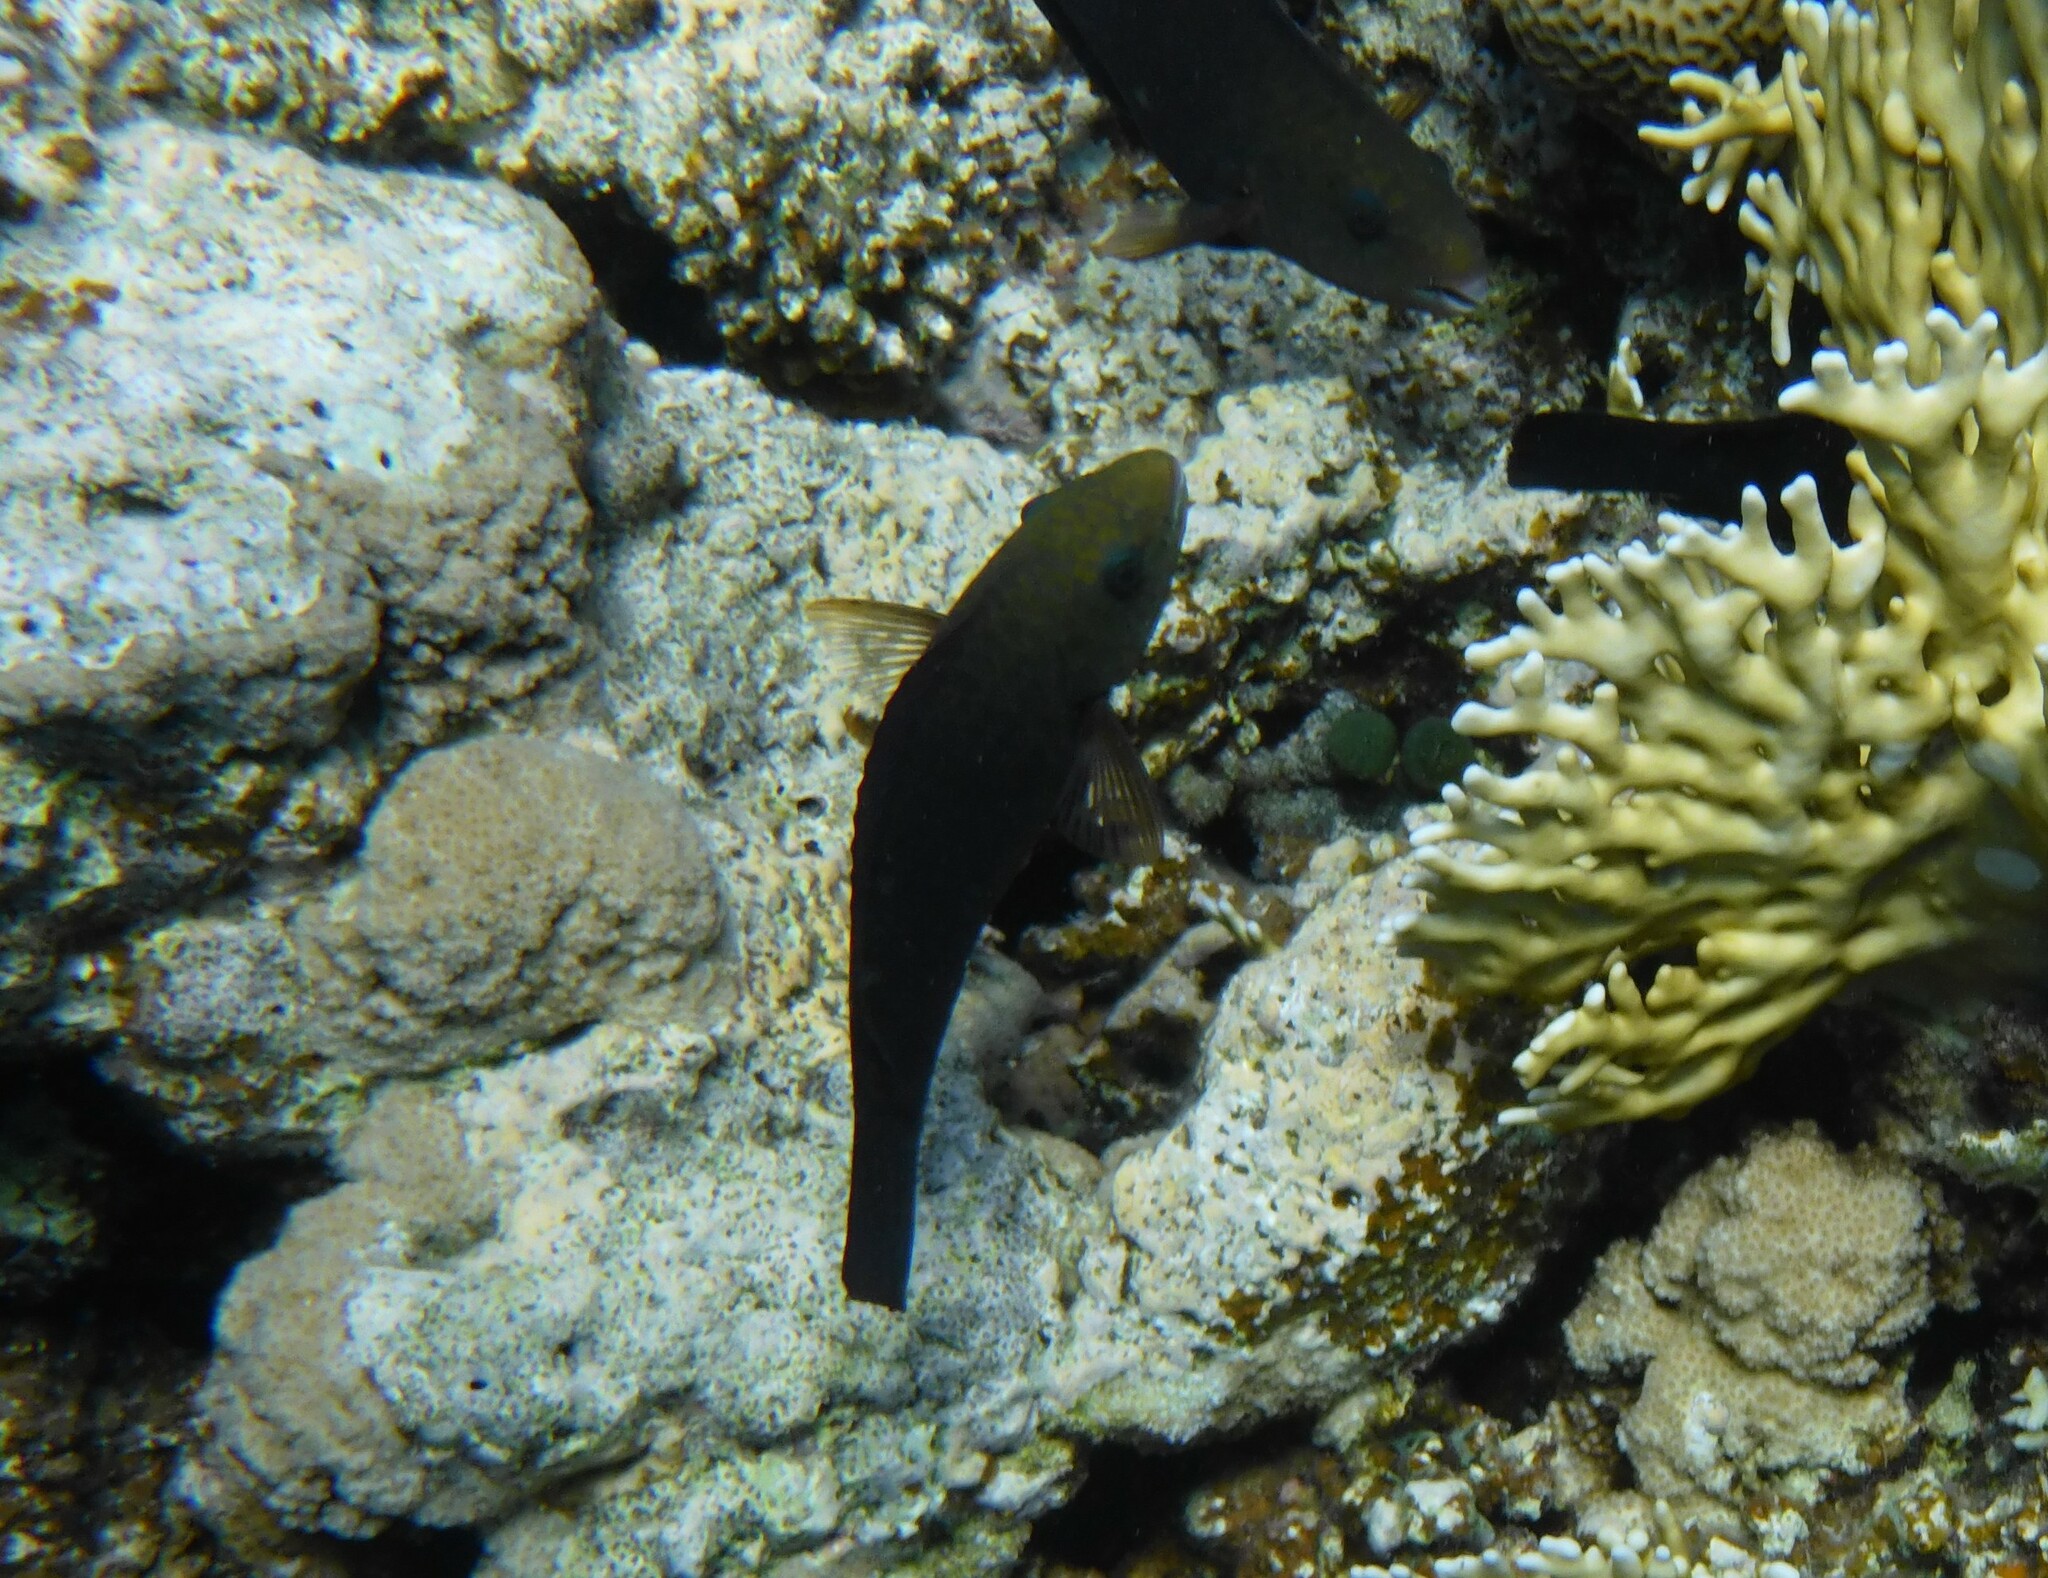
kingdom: Animalia
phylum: Chordata
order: Perciformes
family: Scaridae
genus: Chlorurus
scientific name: Chlorurus sordidus
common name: Bullethead parrotfish
